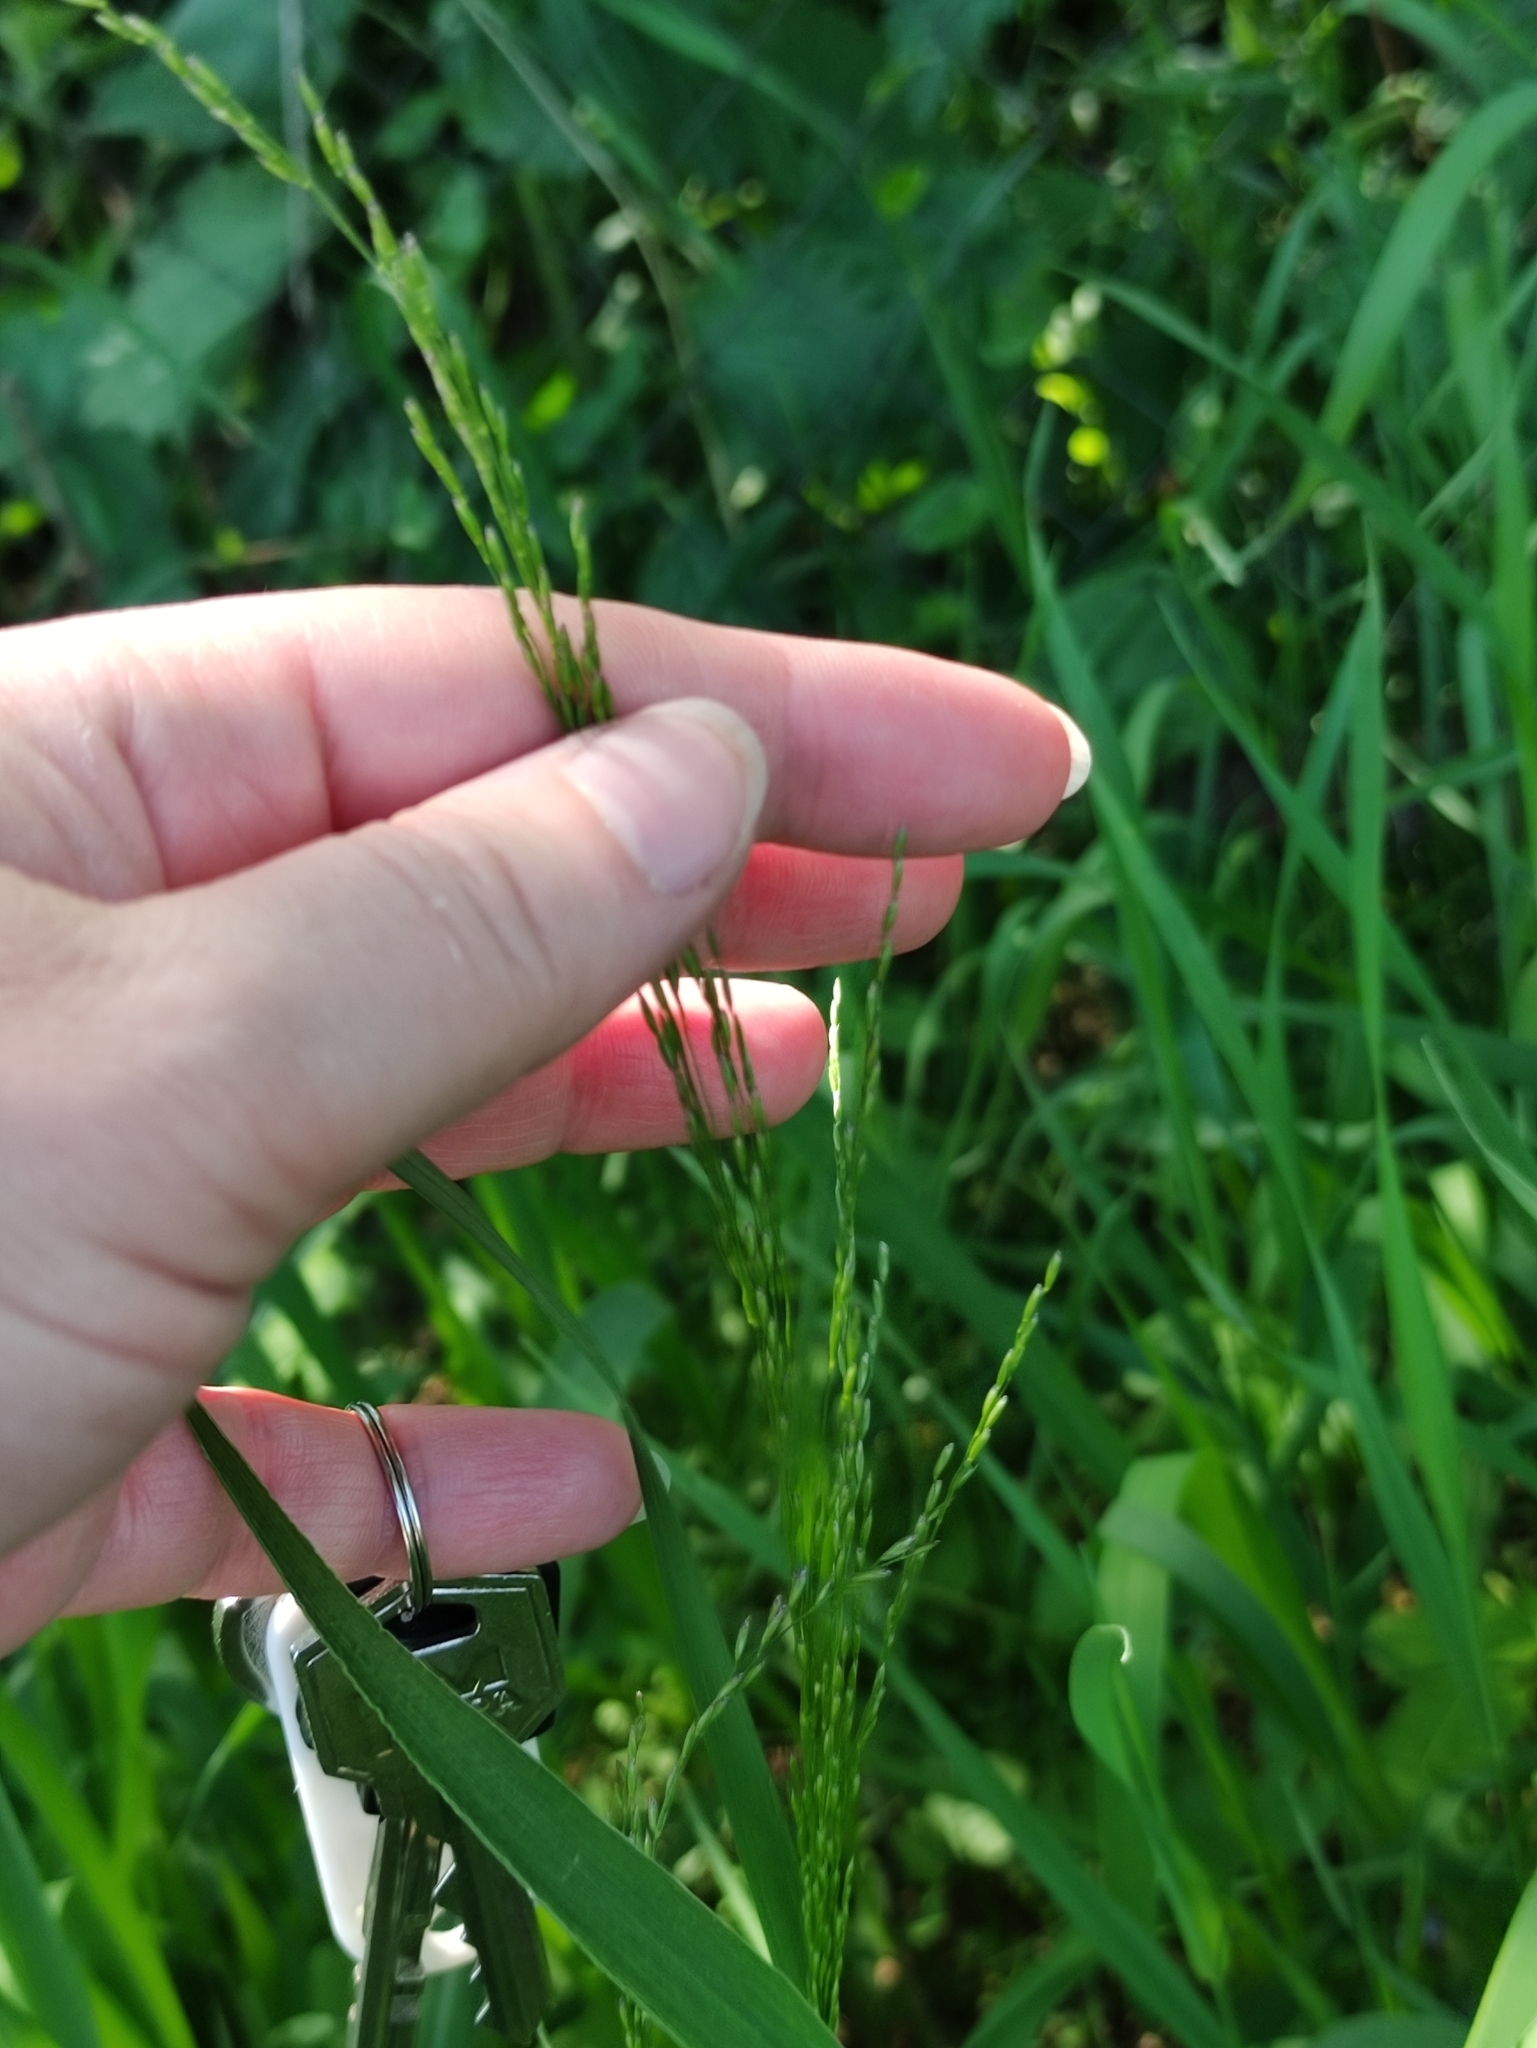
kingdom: Plantae
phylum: Tracheophyta
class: Liliopsida
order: Poales
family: Poaceae
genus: Poa
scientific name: Poa palustris
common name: Swamp meadow-grass
